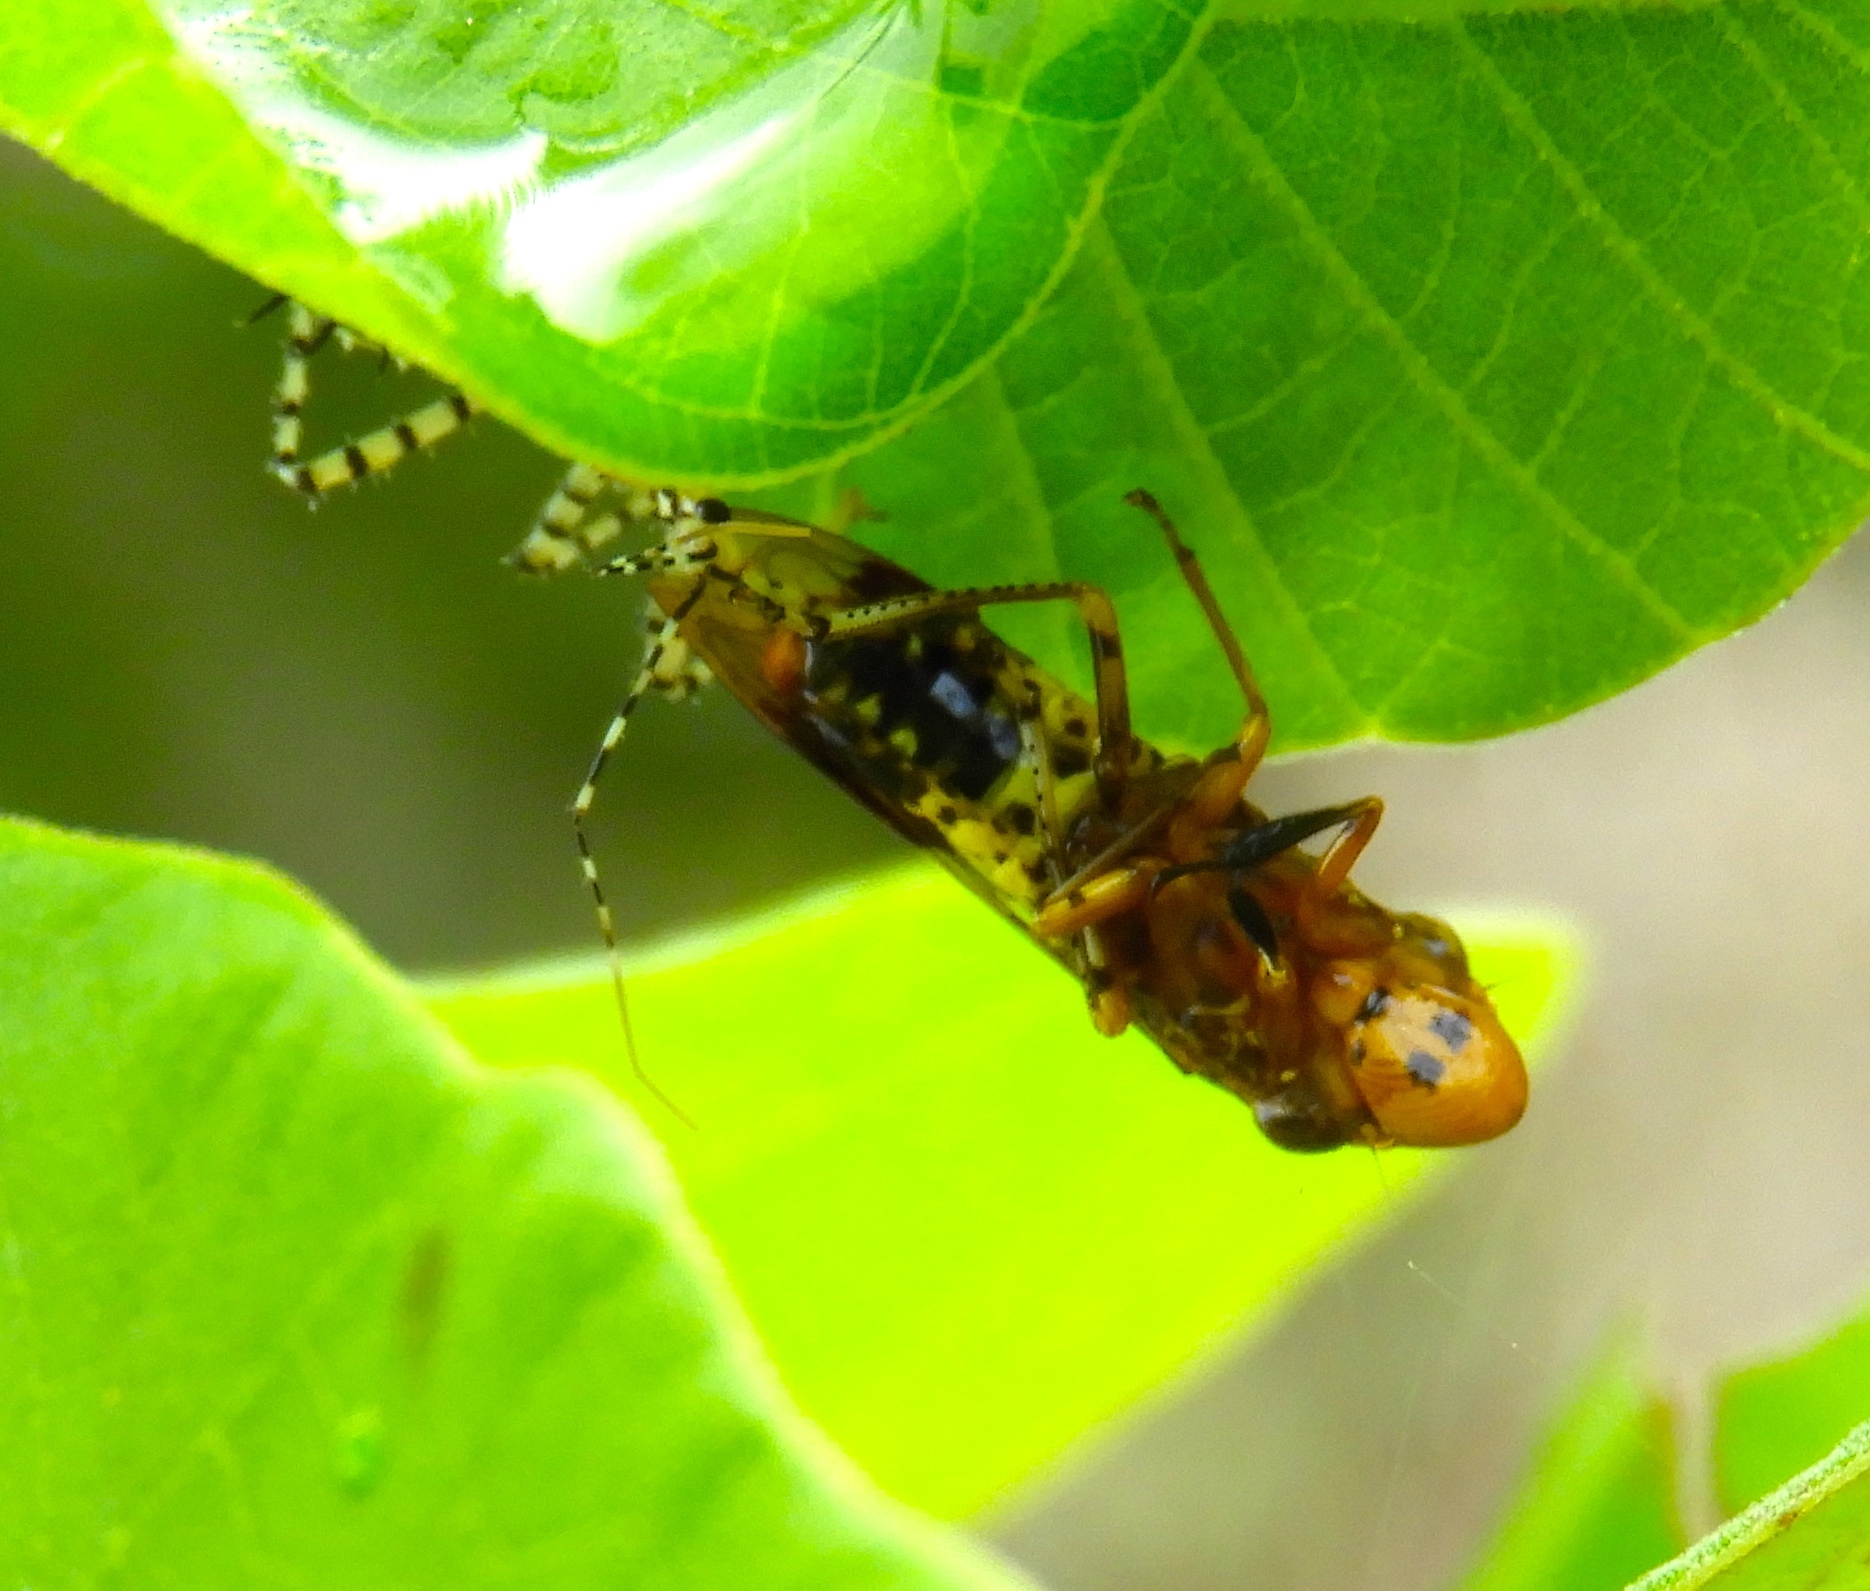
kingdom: Animalia
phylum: Arthropoda
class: Insecta
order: Hemiptera
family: Reduviidae
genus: Pselliopus
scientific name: Pselliopus
